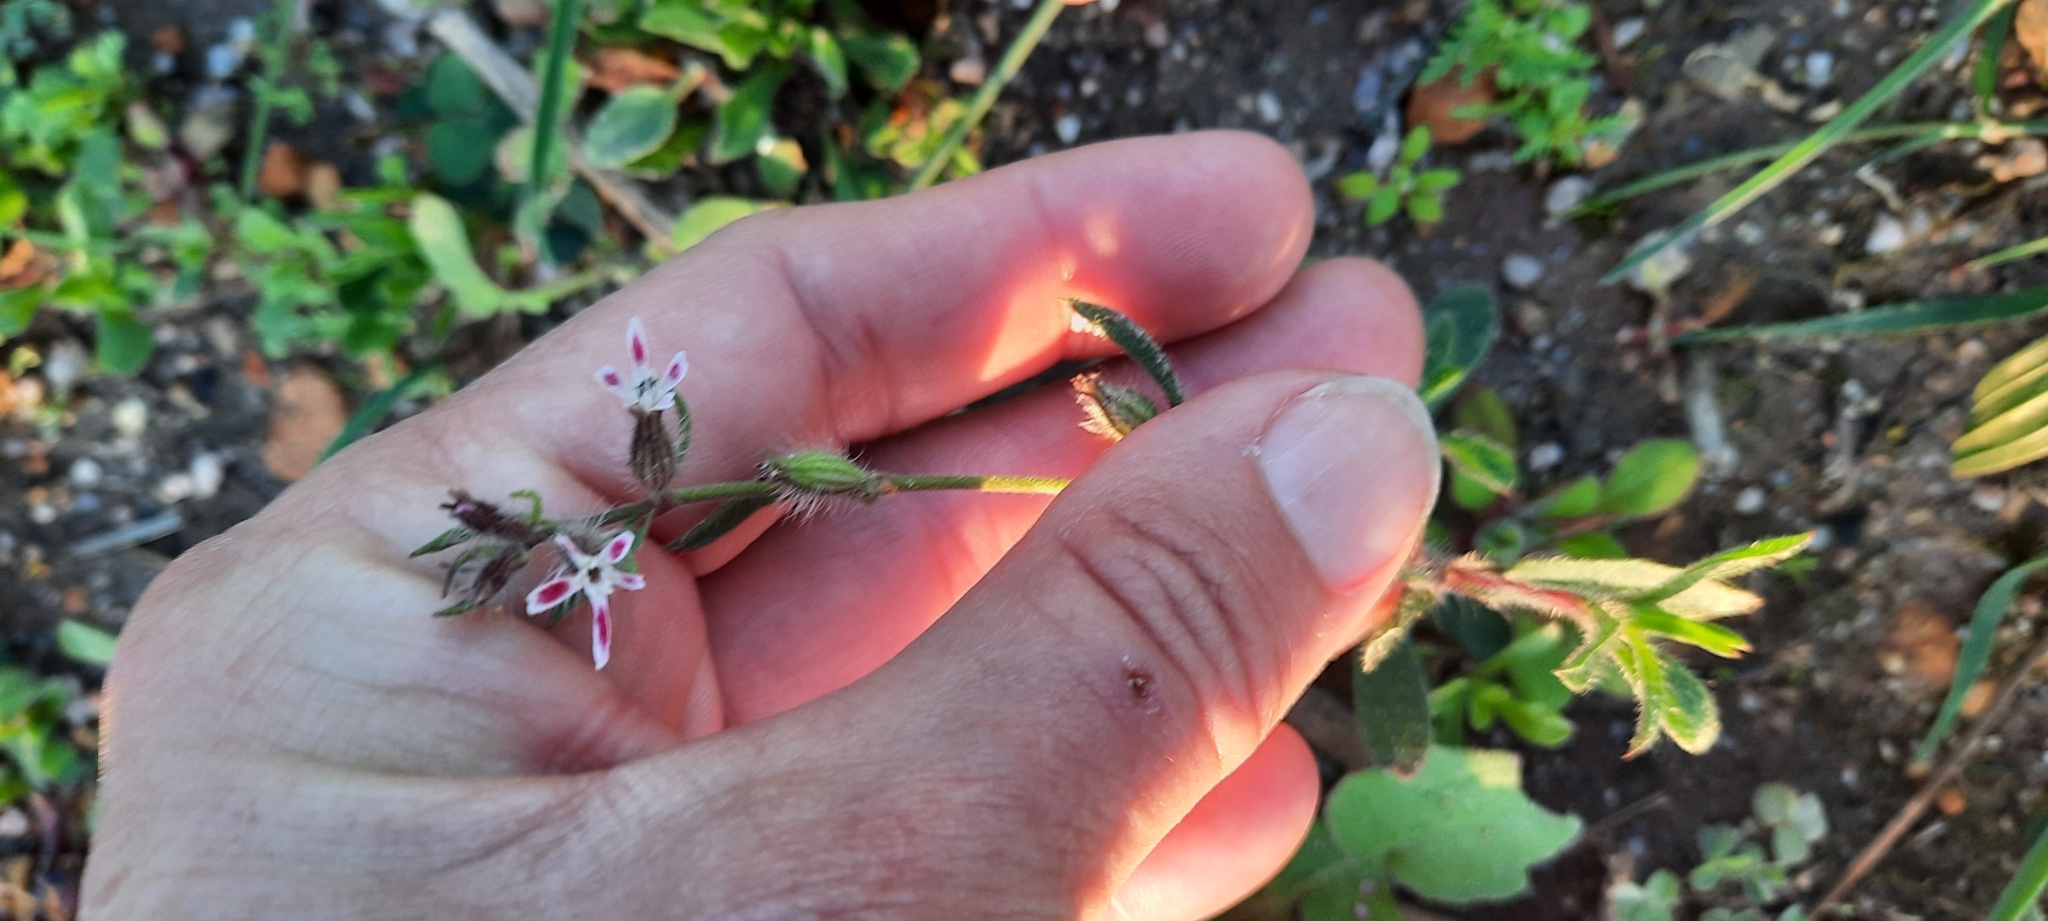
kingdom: Plantae
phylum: Tracheophyta
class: Magnoliopsida
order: Caryophyllales
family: Caryophyllaceae
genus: Silene
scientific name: Silene gallica
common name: Small-flowered catchfly
